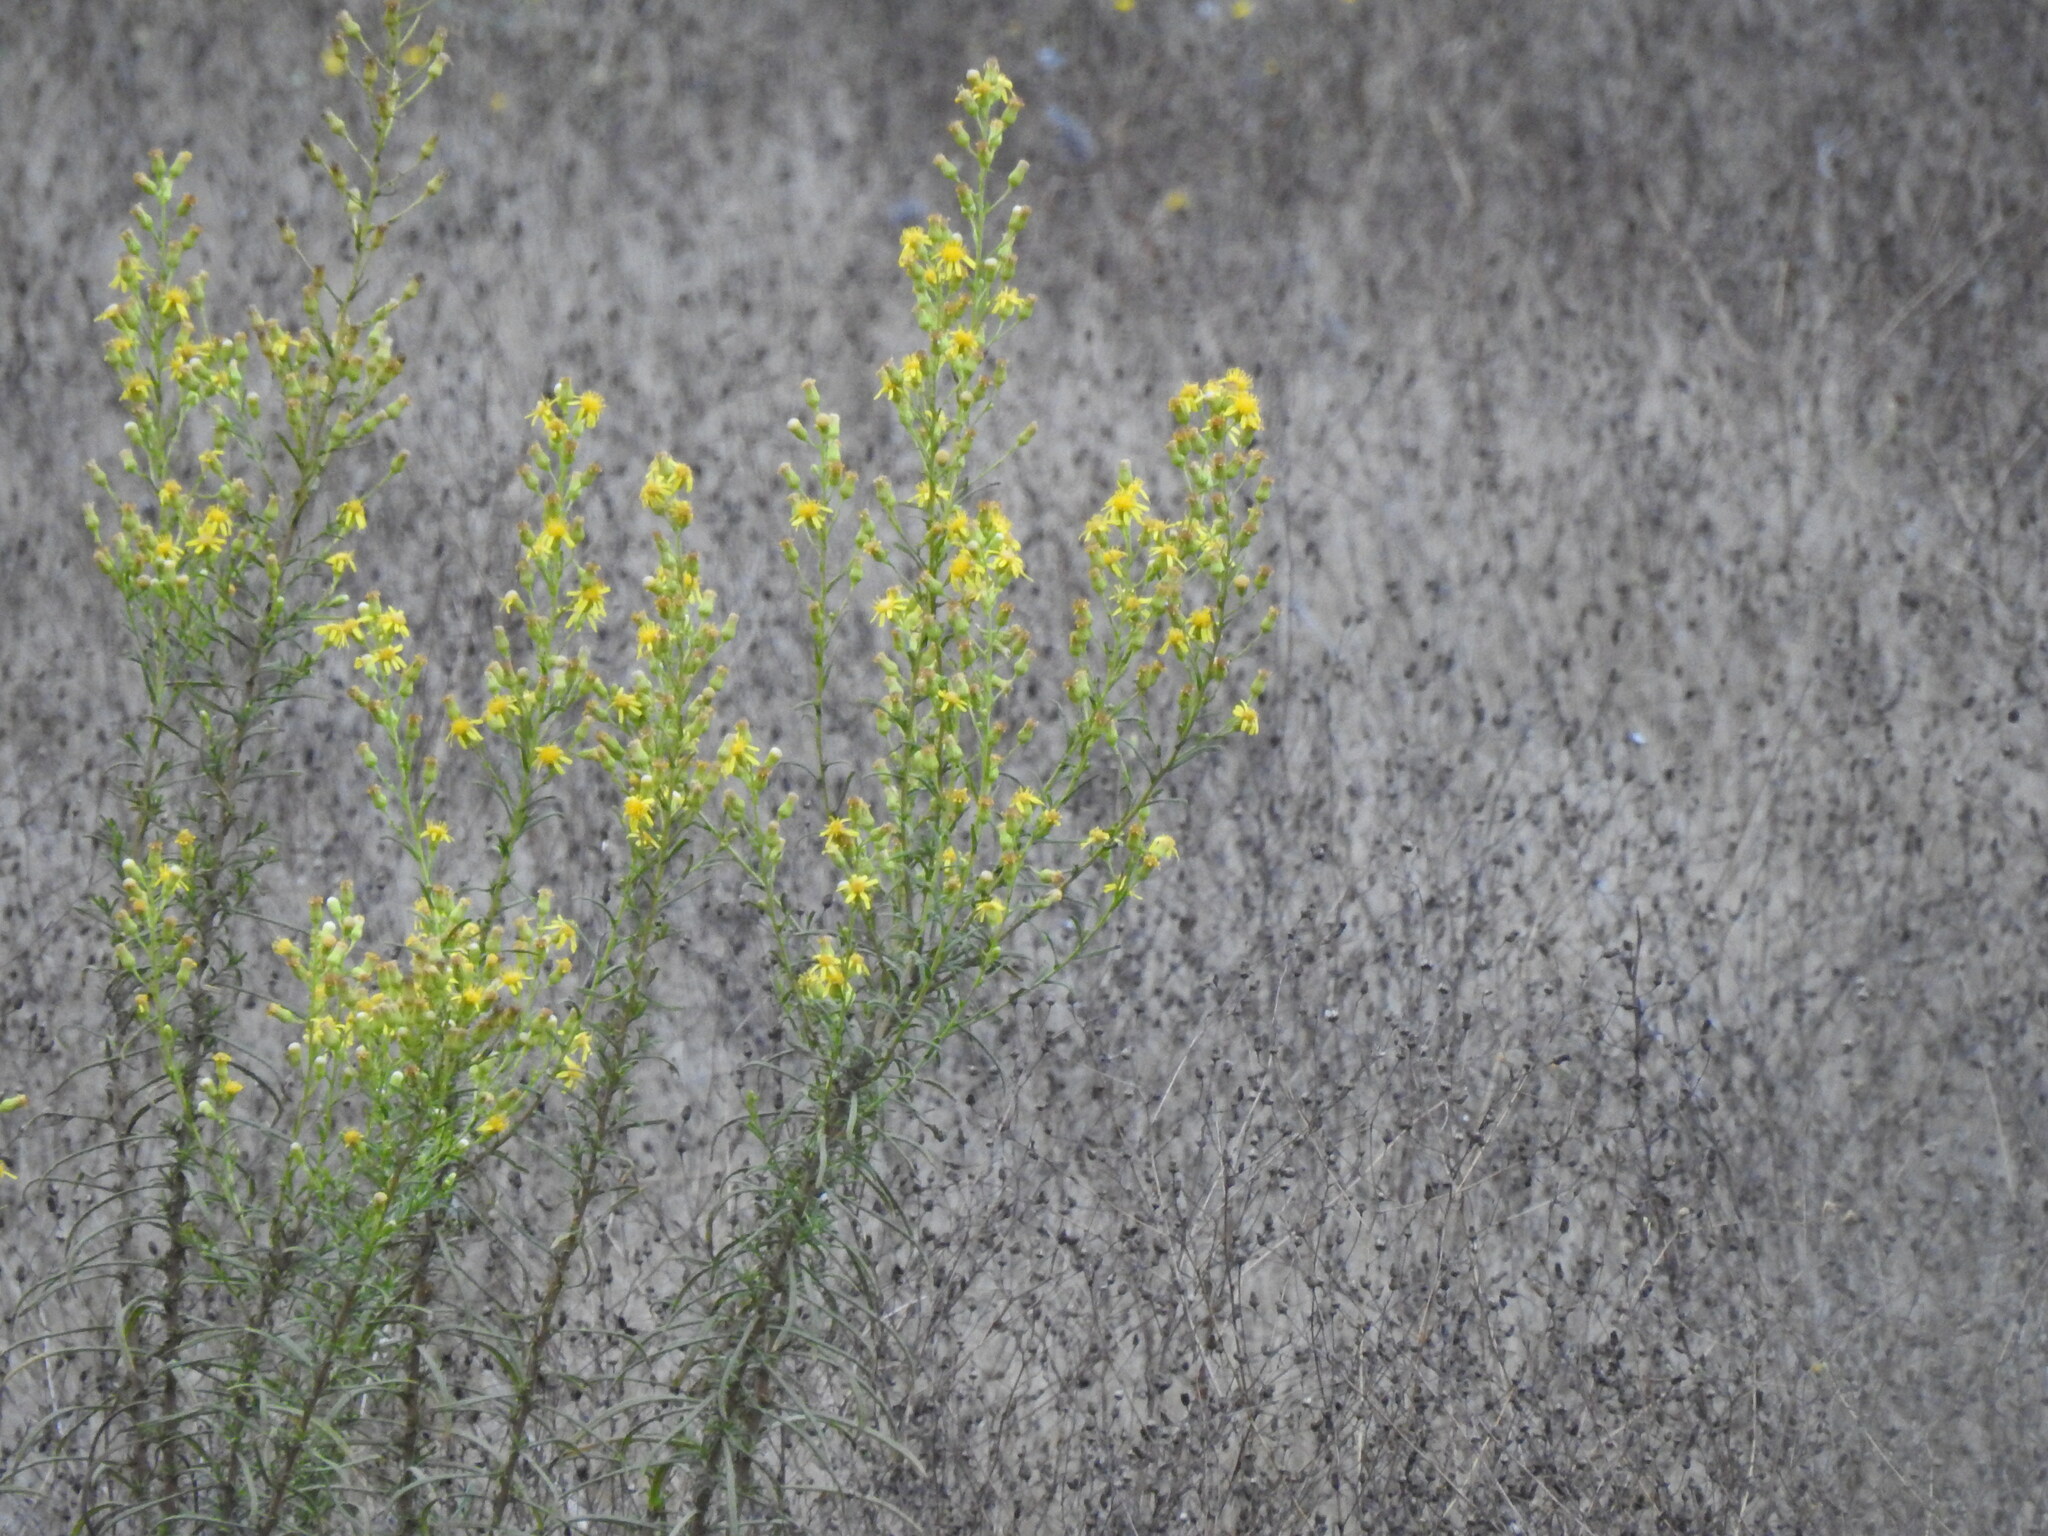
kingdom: Plantae
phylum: Tracheophyta
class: Magnoliopsida
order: Asterales
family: Asteraceae
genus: Dittrichia
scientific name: Dittrichia viscosa
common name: Woody fleabane
